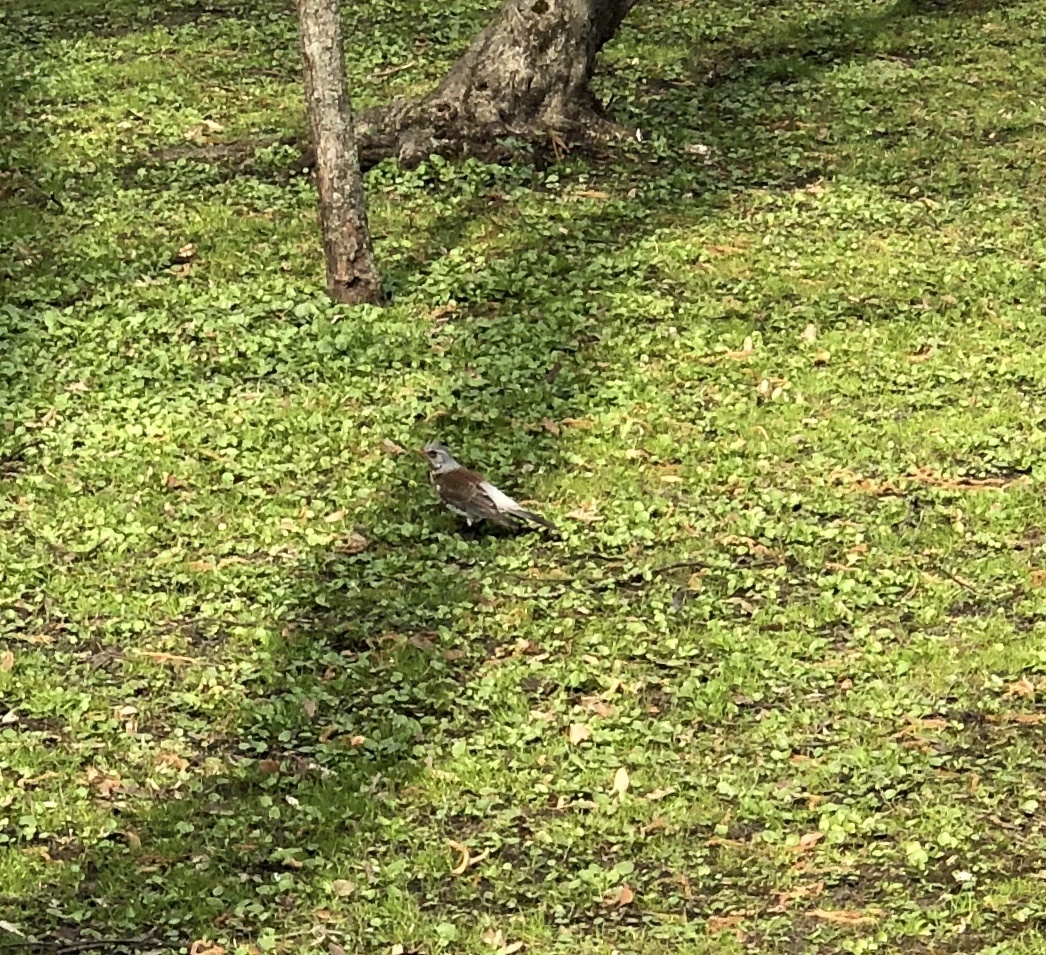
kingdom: Animalia
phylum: Chordata
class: Aves
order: Passeriformes
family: Turdidae
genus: Turdus
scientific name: Turdus pilaris
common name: Fieldfare
